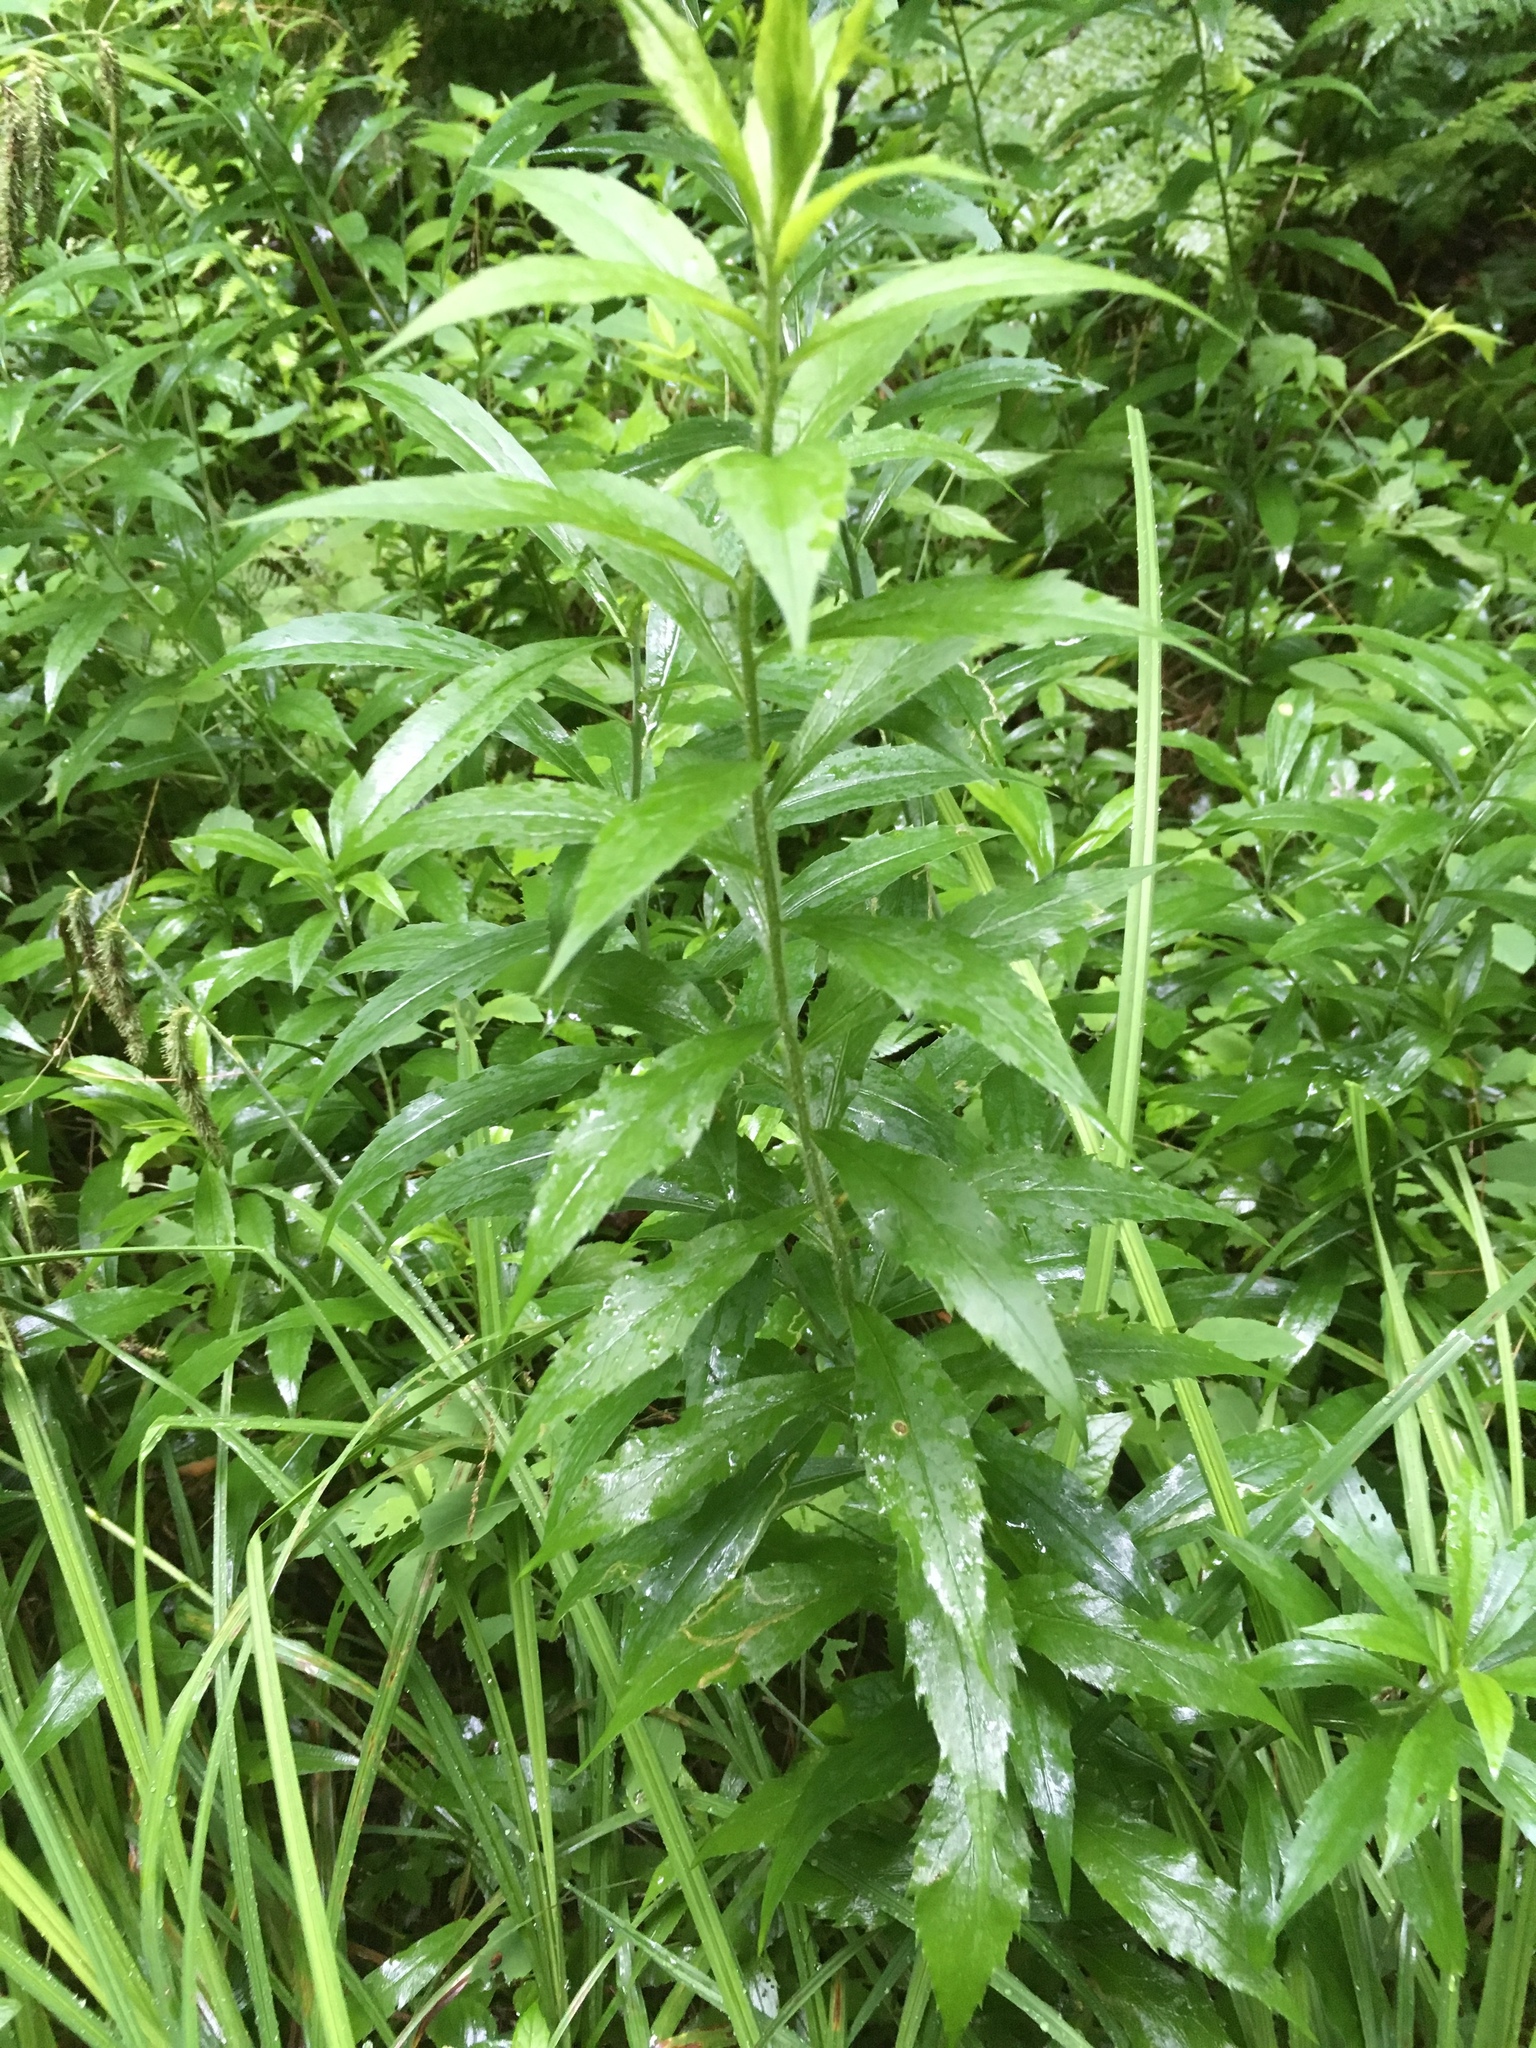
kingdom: Plantae
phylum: Tracheophyta
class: Magnoliopsida
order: Asterales
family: Asteraceae
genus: Solidago
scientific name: Solidago rugosa
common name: Rough-stemmed goldenrod
